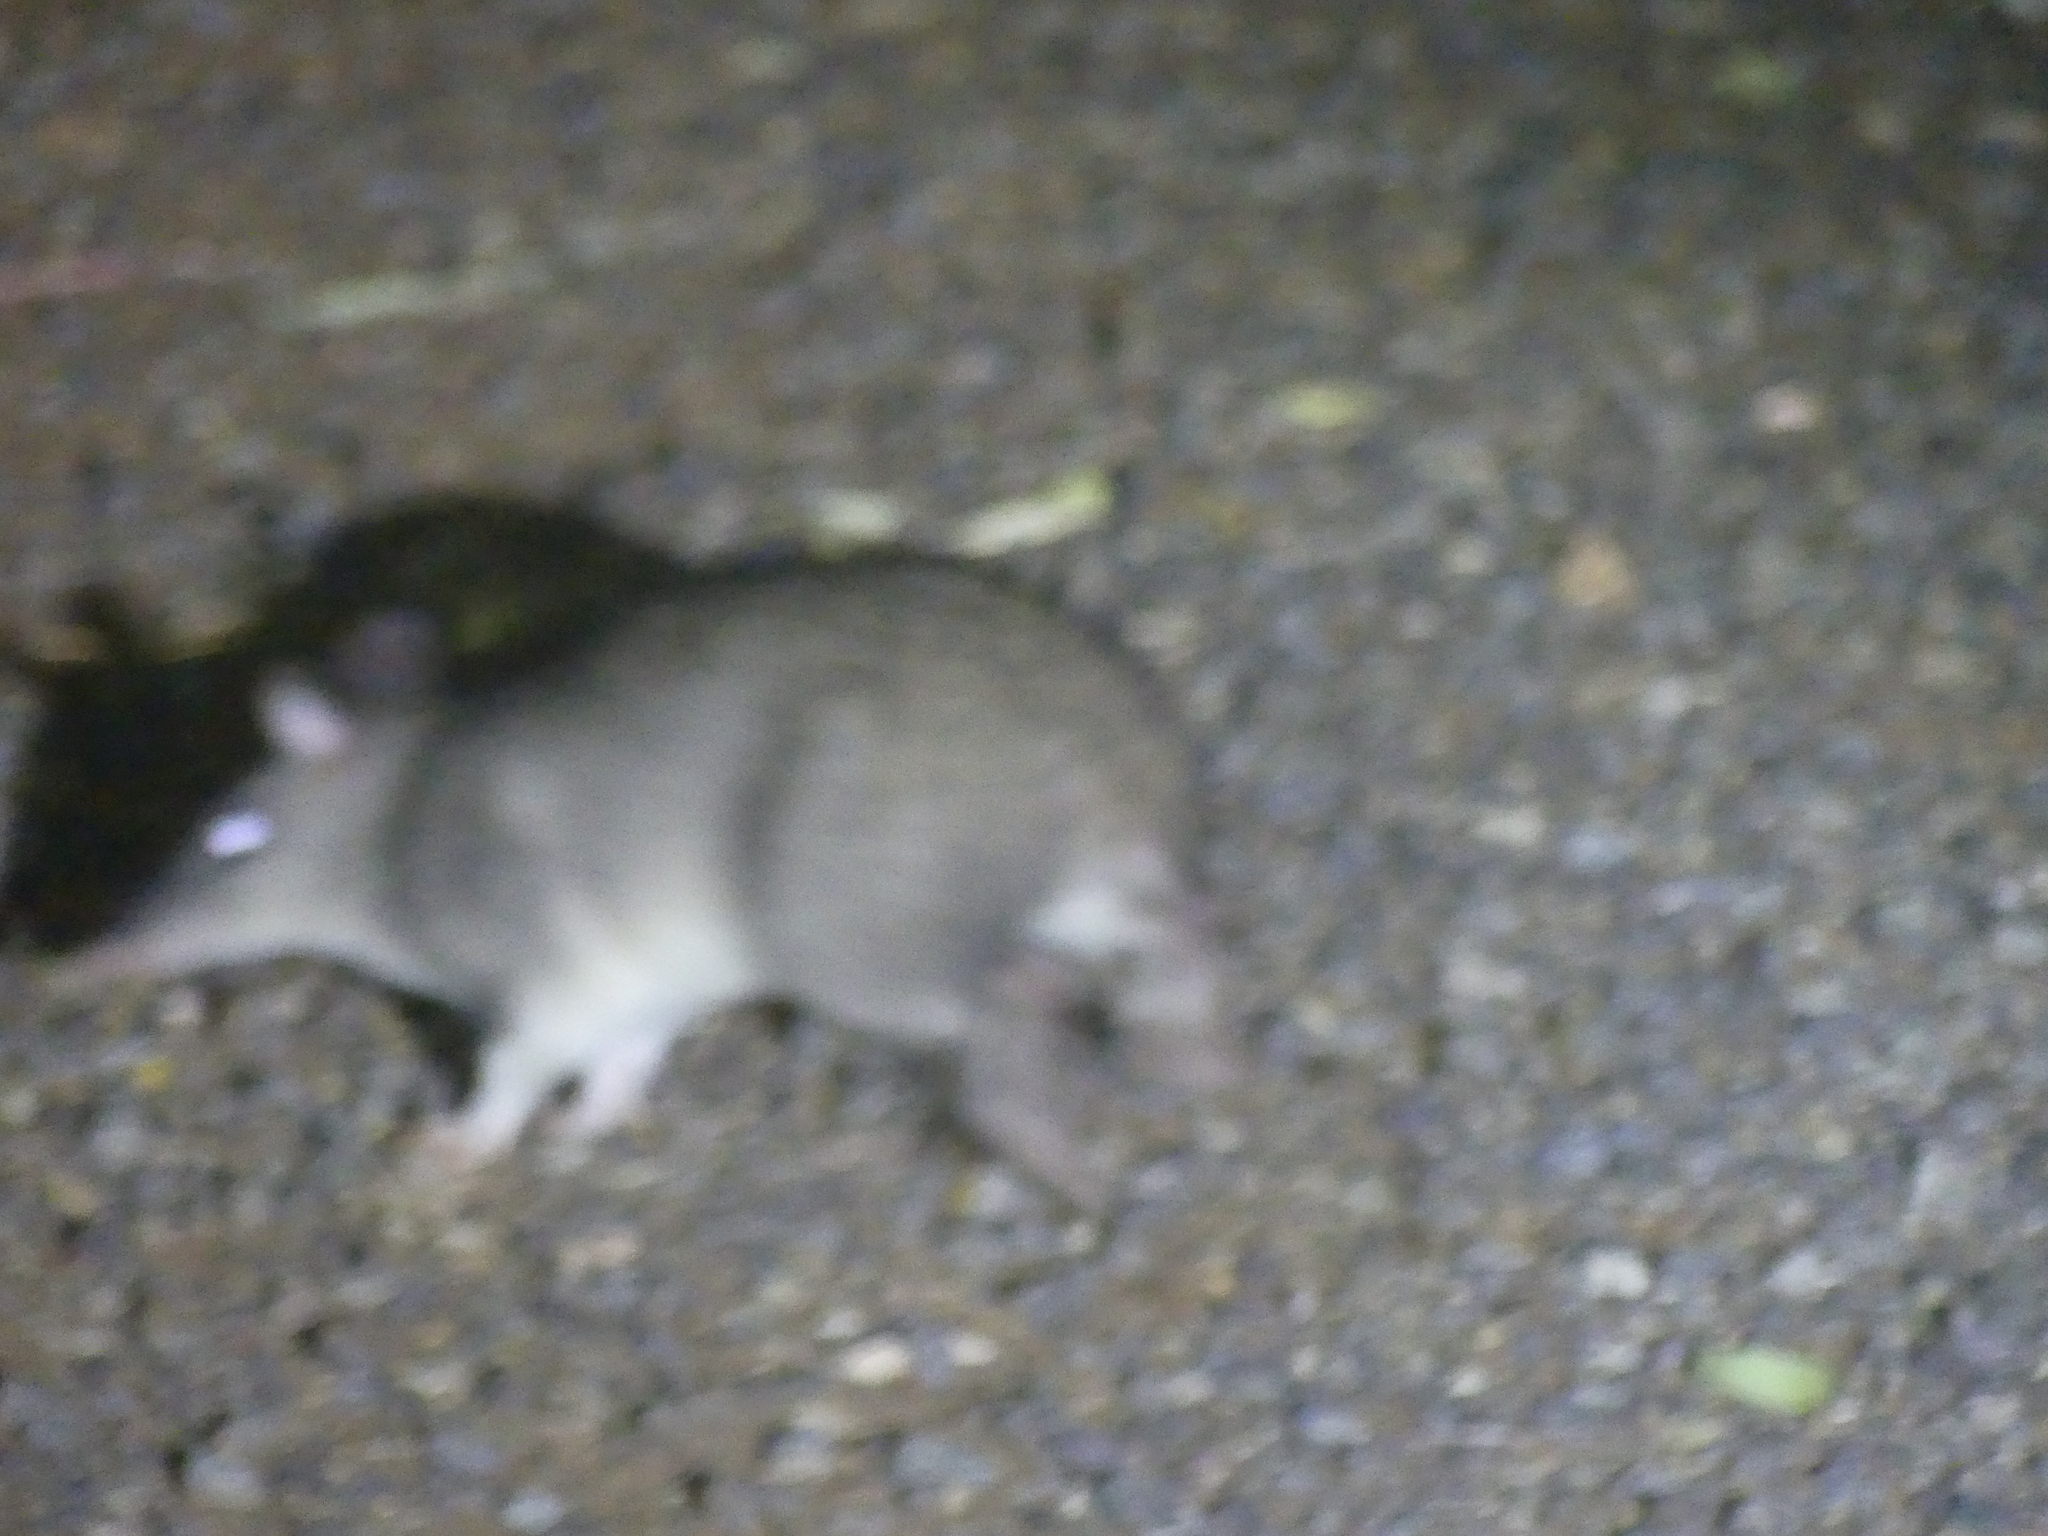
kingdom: Animalia
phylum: Chordata
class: Mammalia
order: Peramelemorphia
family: Peramelidae
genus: Perameles
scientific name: Perameles nasuta
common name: Long-nosed bandicoot
